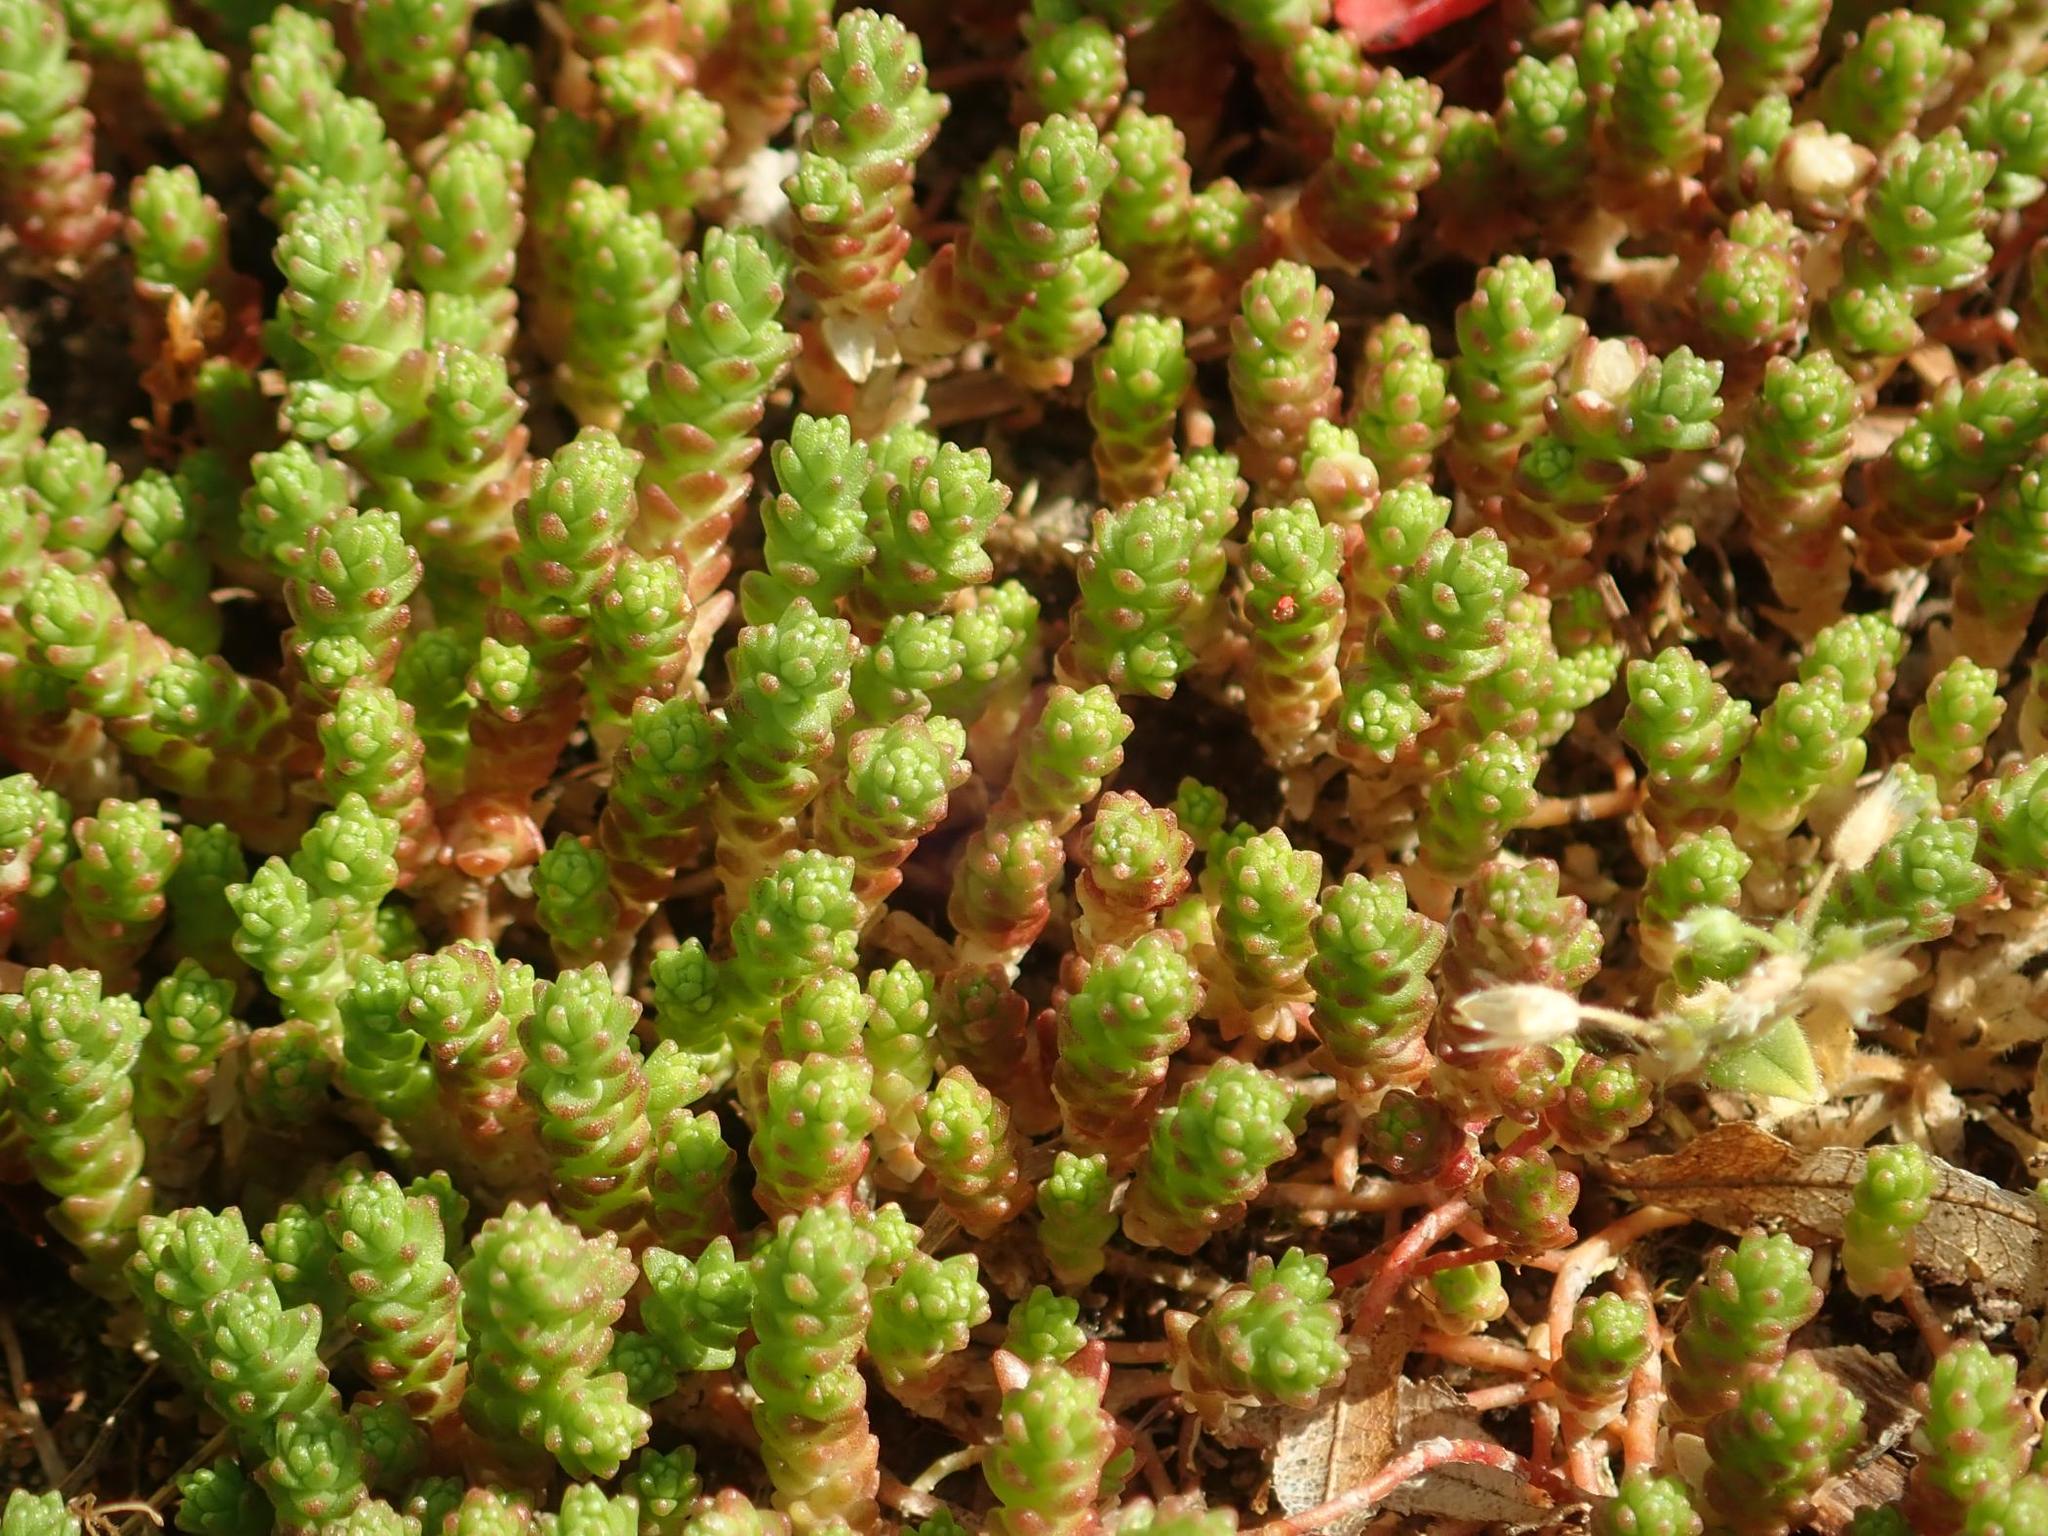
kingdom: Plantae
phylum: Tracheophyta
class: Magnoliopsida
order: Saxifragales
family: Crassulaceae
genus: Sedum
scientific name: Sedum acre
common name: Biting stonecrop
